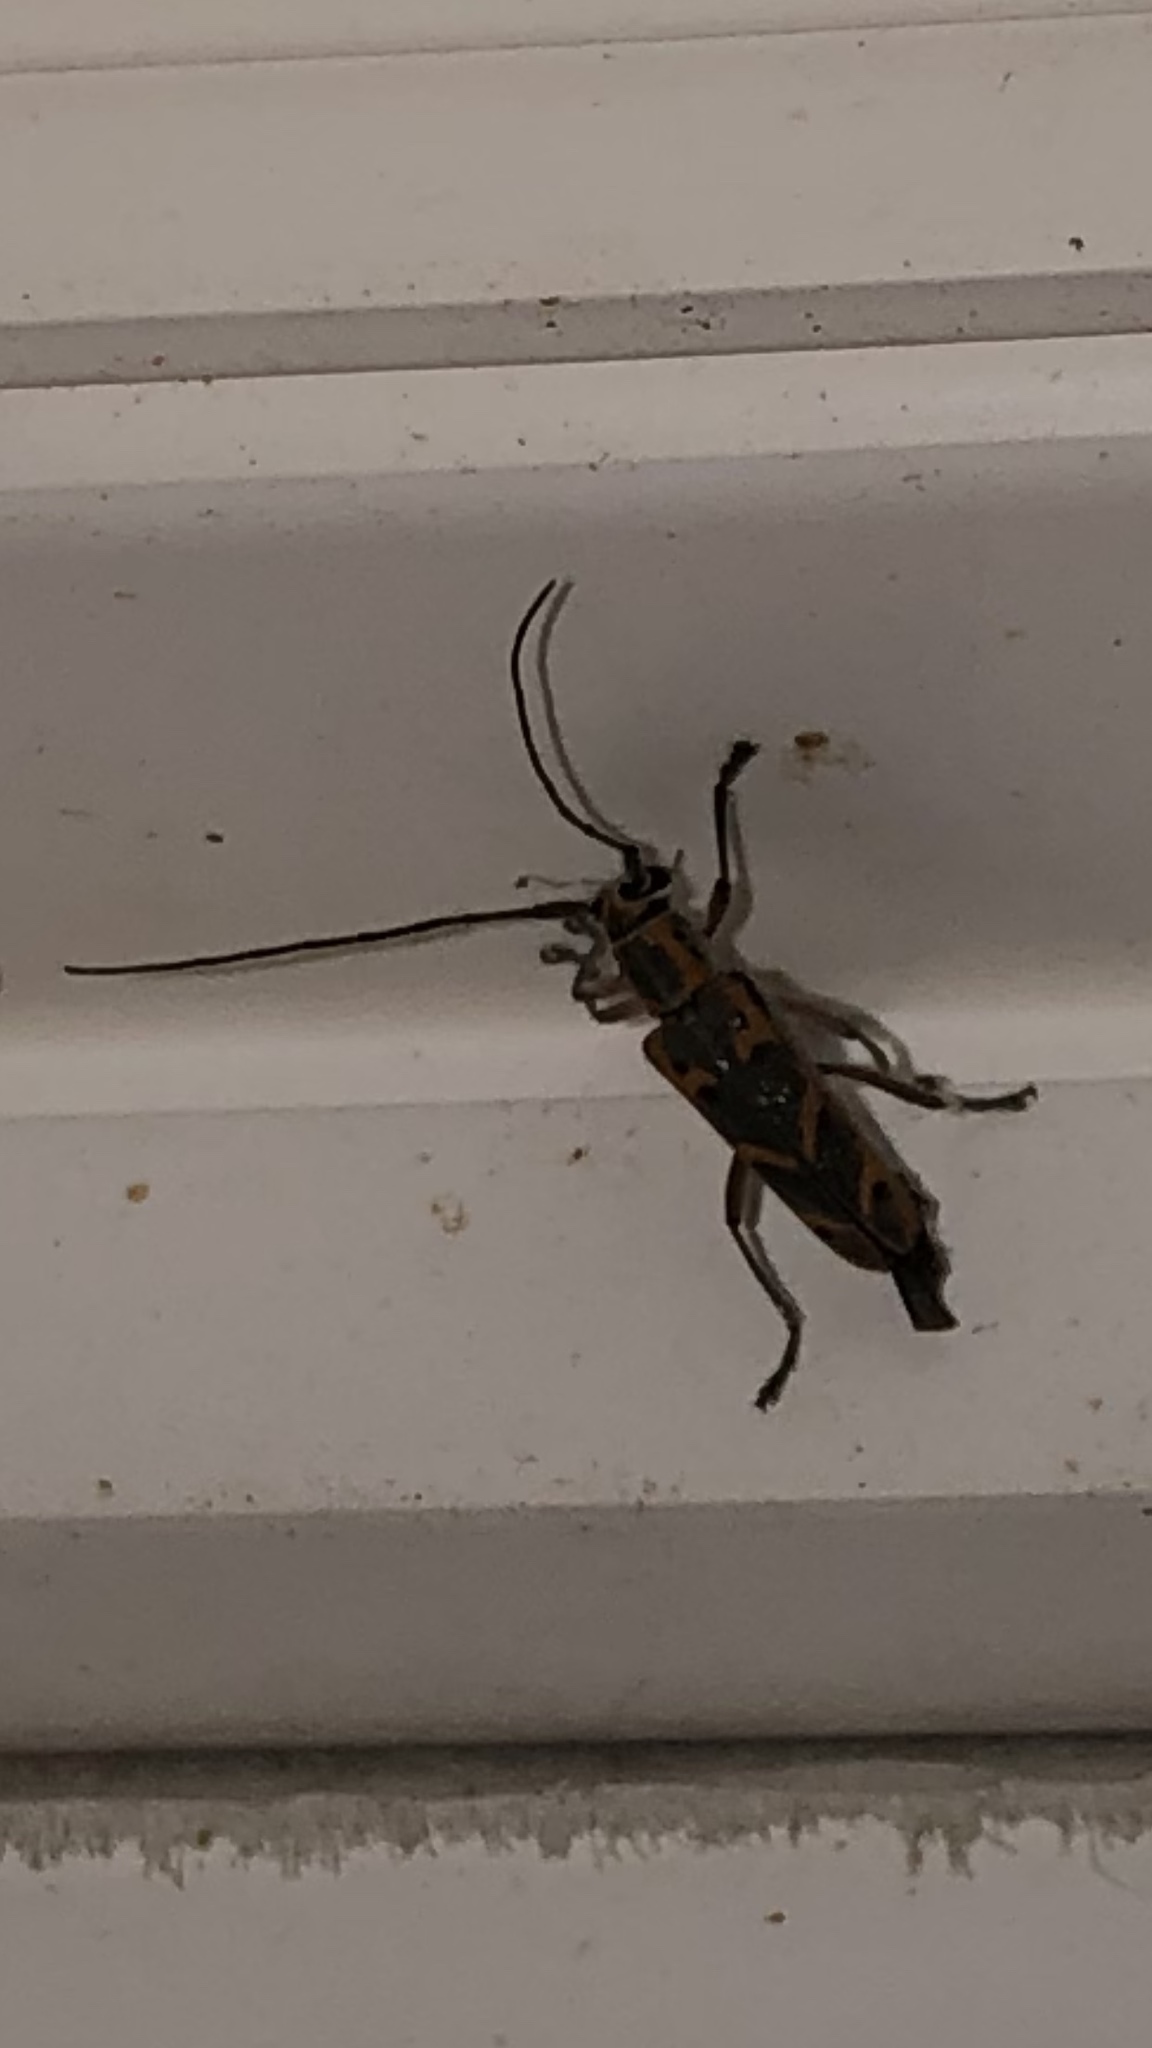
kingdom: Animalia
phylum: Arthropoda
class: Insecta
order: Coleoptera
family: Cerambycidae
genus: Saperda
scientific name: Saperda tridentata
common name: Elm borer
